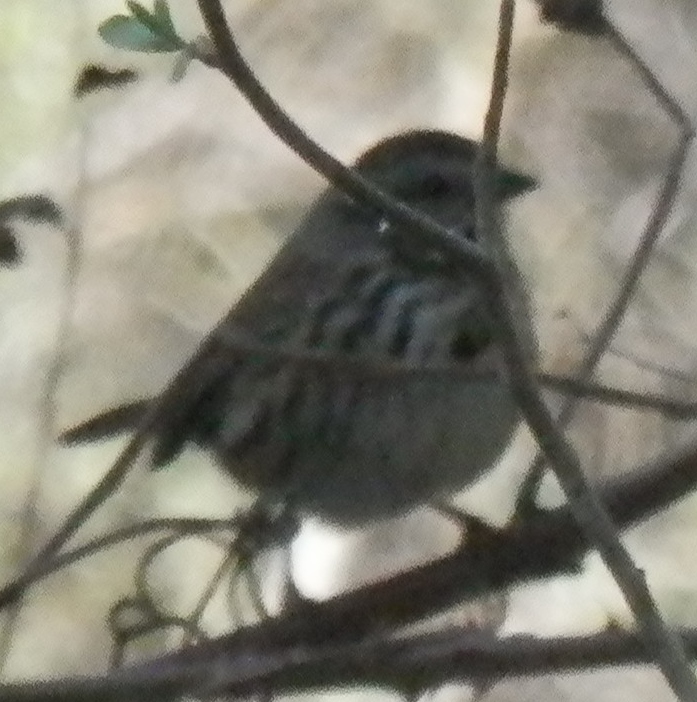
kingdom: Animalia
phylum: Chordata
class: Aves
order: Passeriformes
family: Passerellidae
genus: Melospiza
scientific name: Melospiza melodia
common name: Song sparrow
